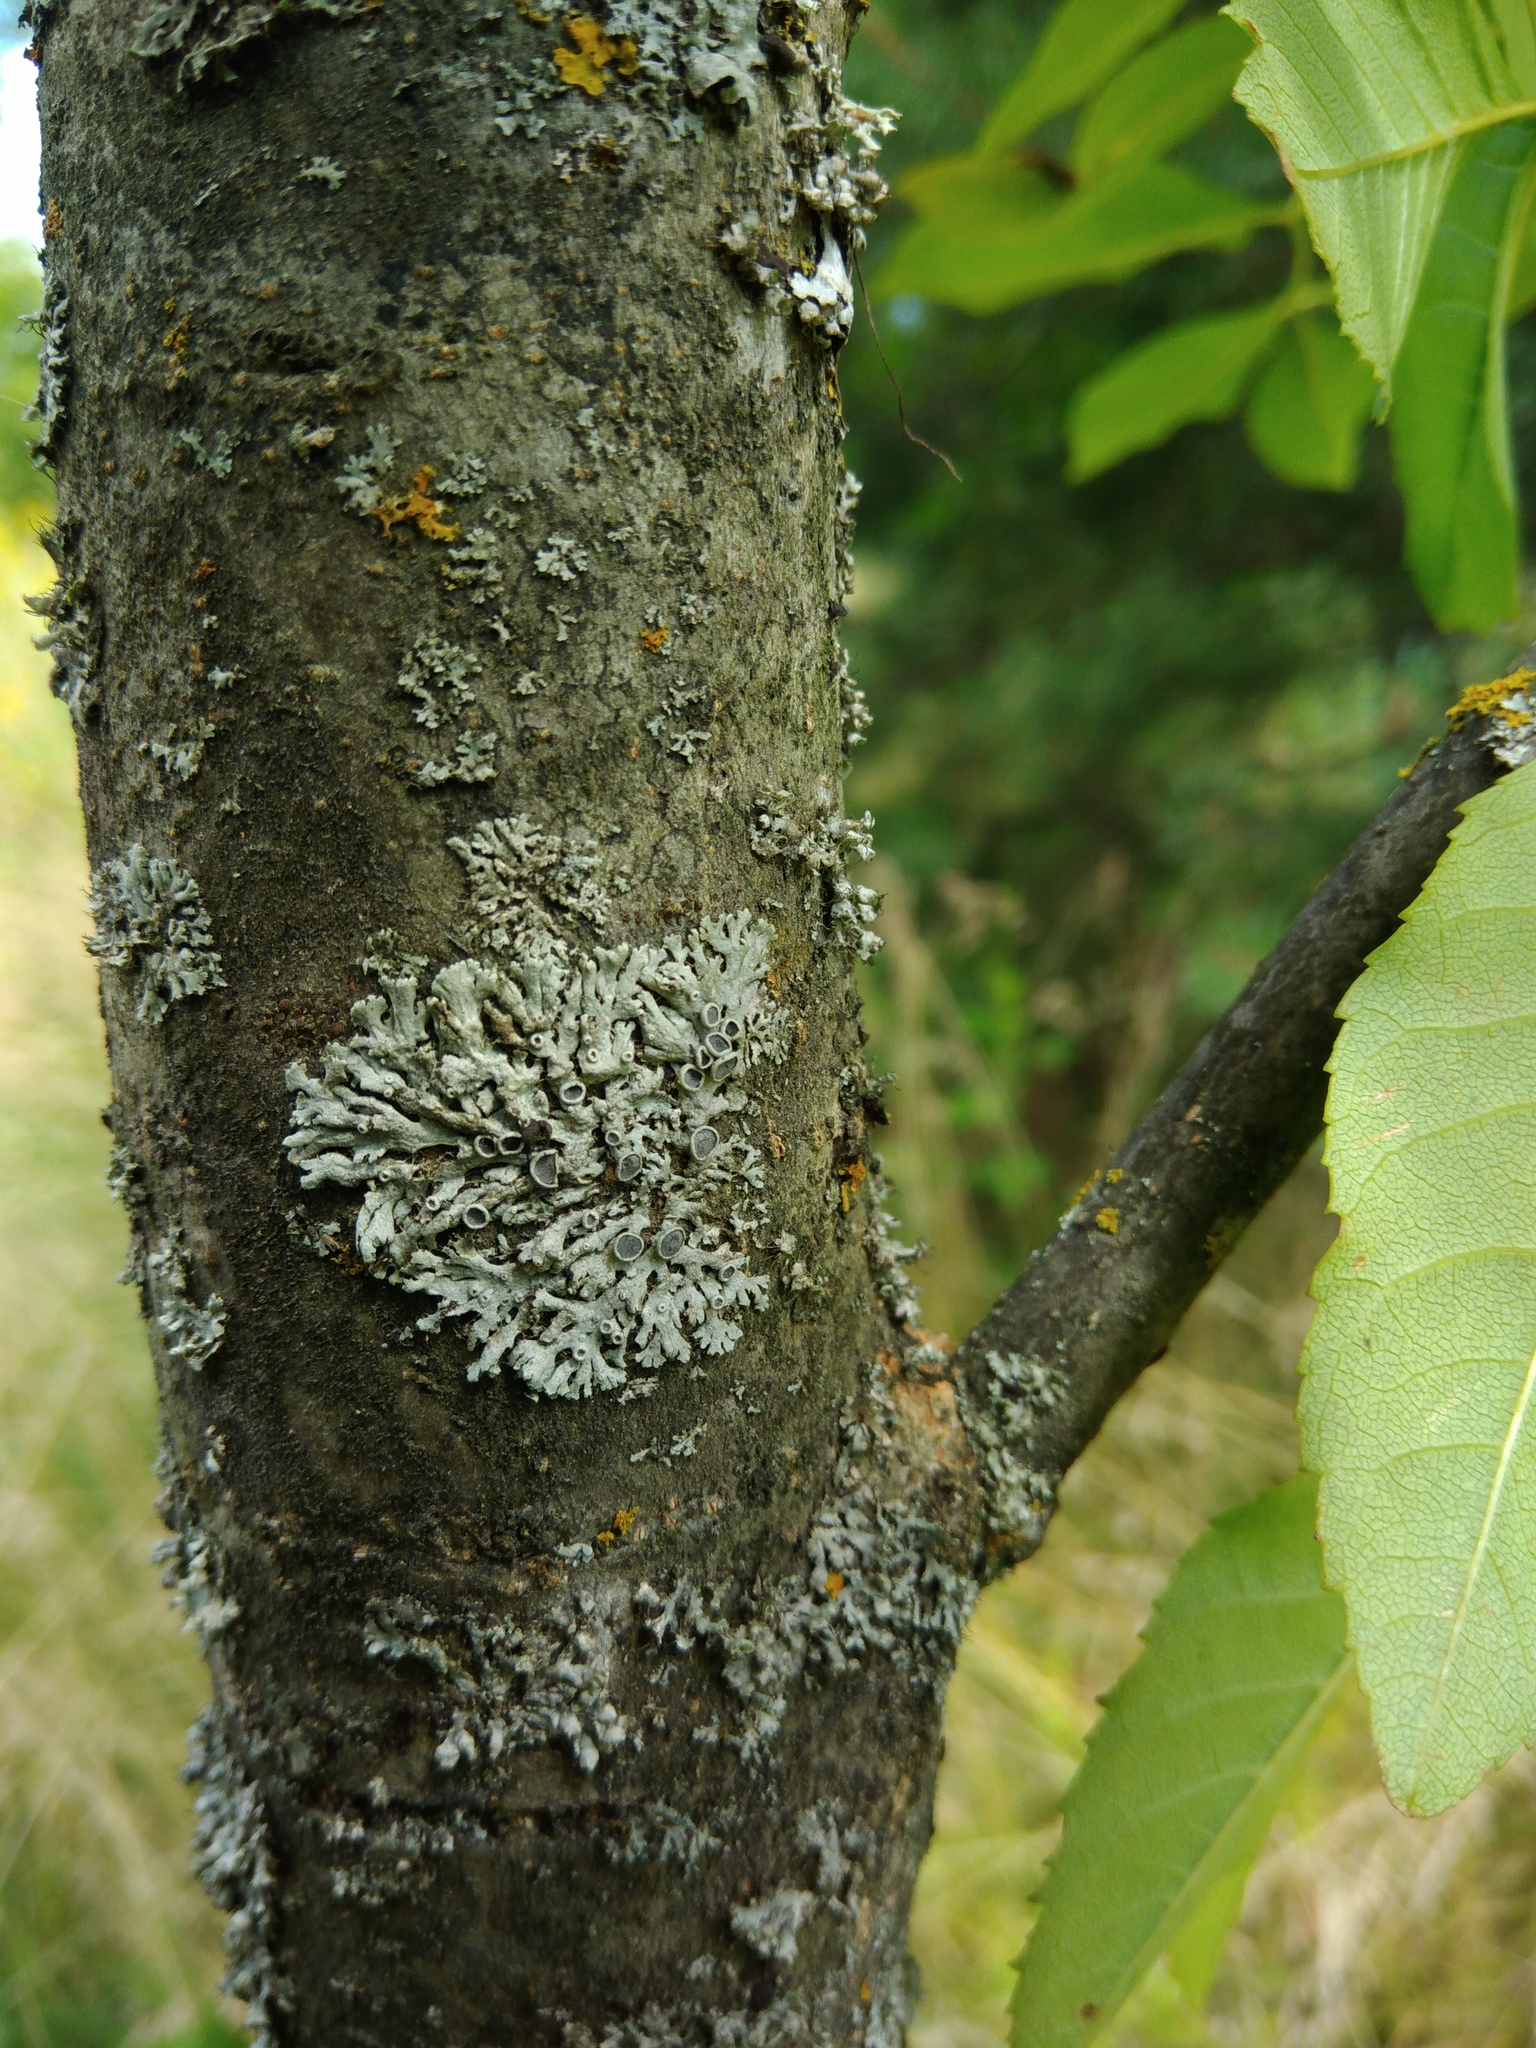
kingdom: Fungi
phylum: Ascomycota
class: Lecanoromycetes
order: Caliciales
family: Physciaceae
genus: Physcia
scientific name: Physcia stellaris
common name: Star rosette lichen
